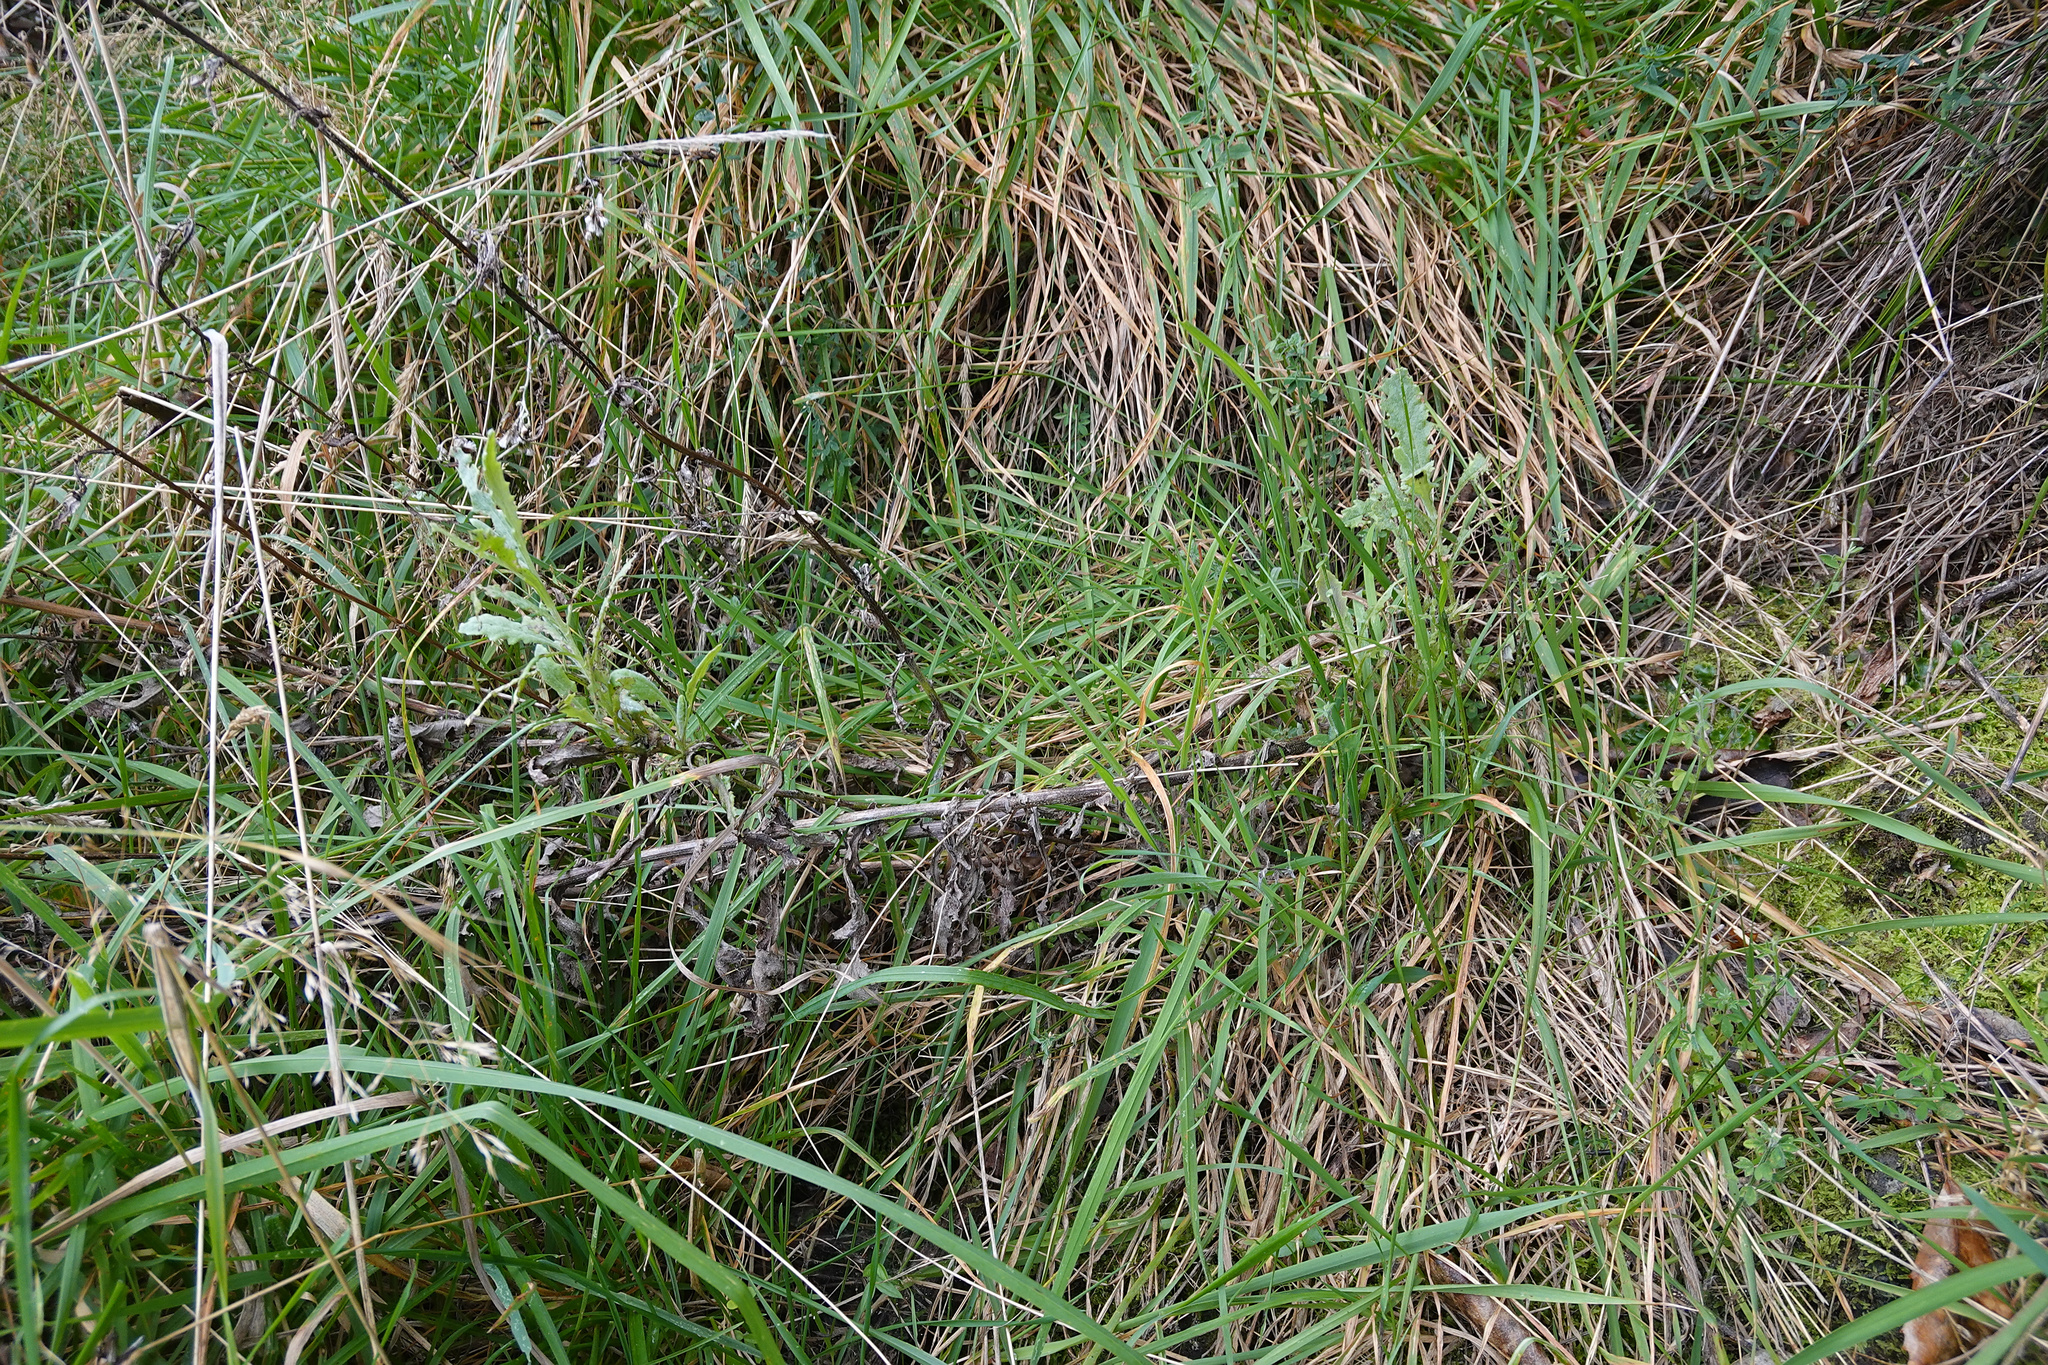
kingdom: Plantae
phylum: Tracheophyta
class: Magnoliopsida
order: Asterales
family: Asteraceae
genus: Senecio
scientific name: Senecio glomeratus
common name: Cutleaf burnweed
